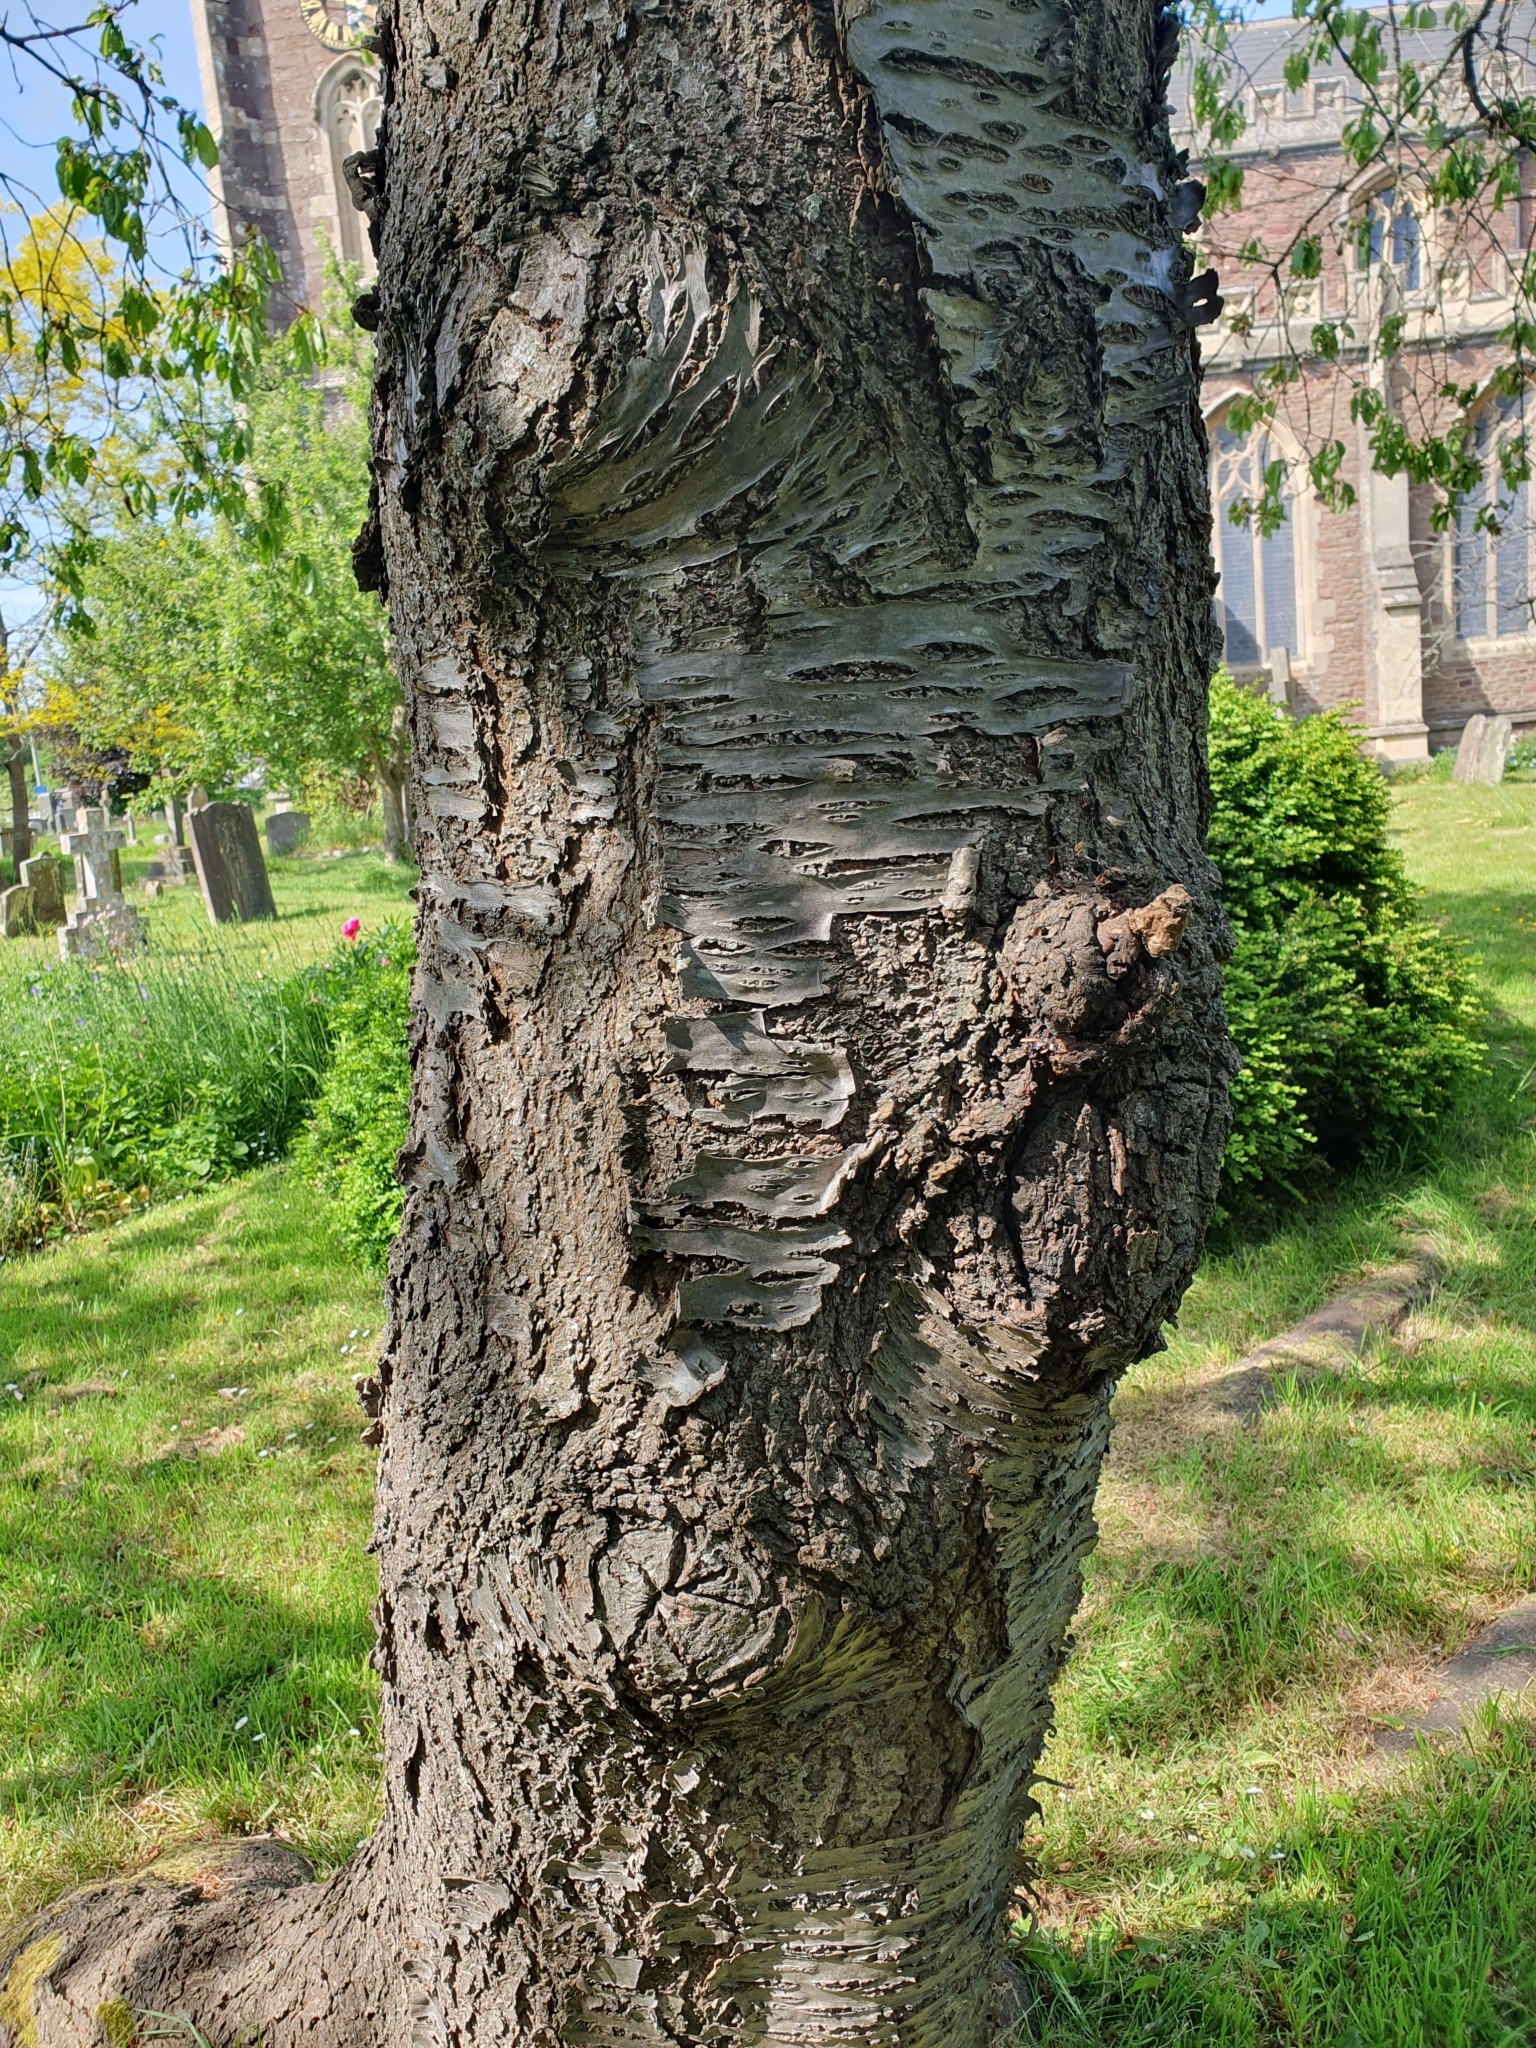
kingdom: Plantae
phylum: Tracheophyta
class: Magnoliopsida
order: Rosales
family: Rosaceae
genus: Prunus
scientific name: Prunus avium
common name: Sweet cherry
